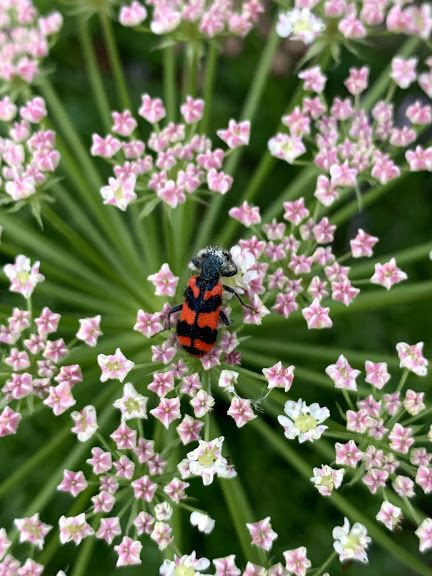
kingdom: Animalia
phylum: Arthropoda
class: Insecta
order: Coleoptera
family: Cleridae
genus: Trichodes
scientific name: Trichodes alvearius
